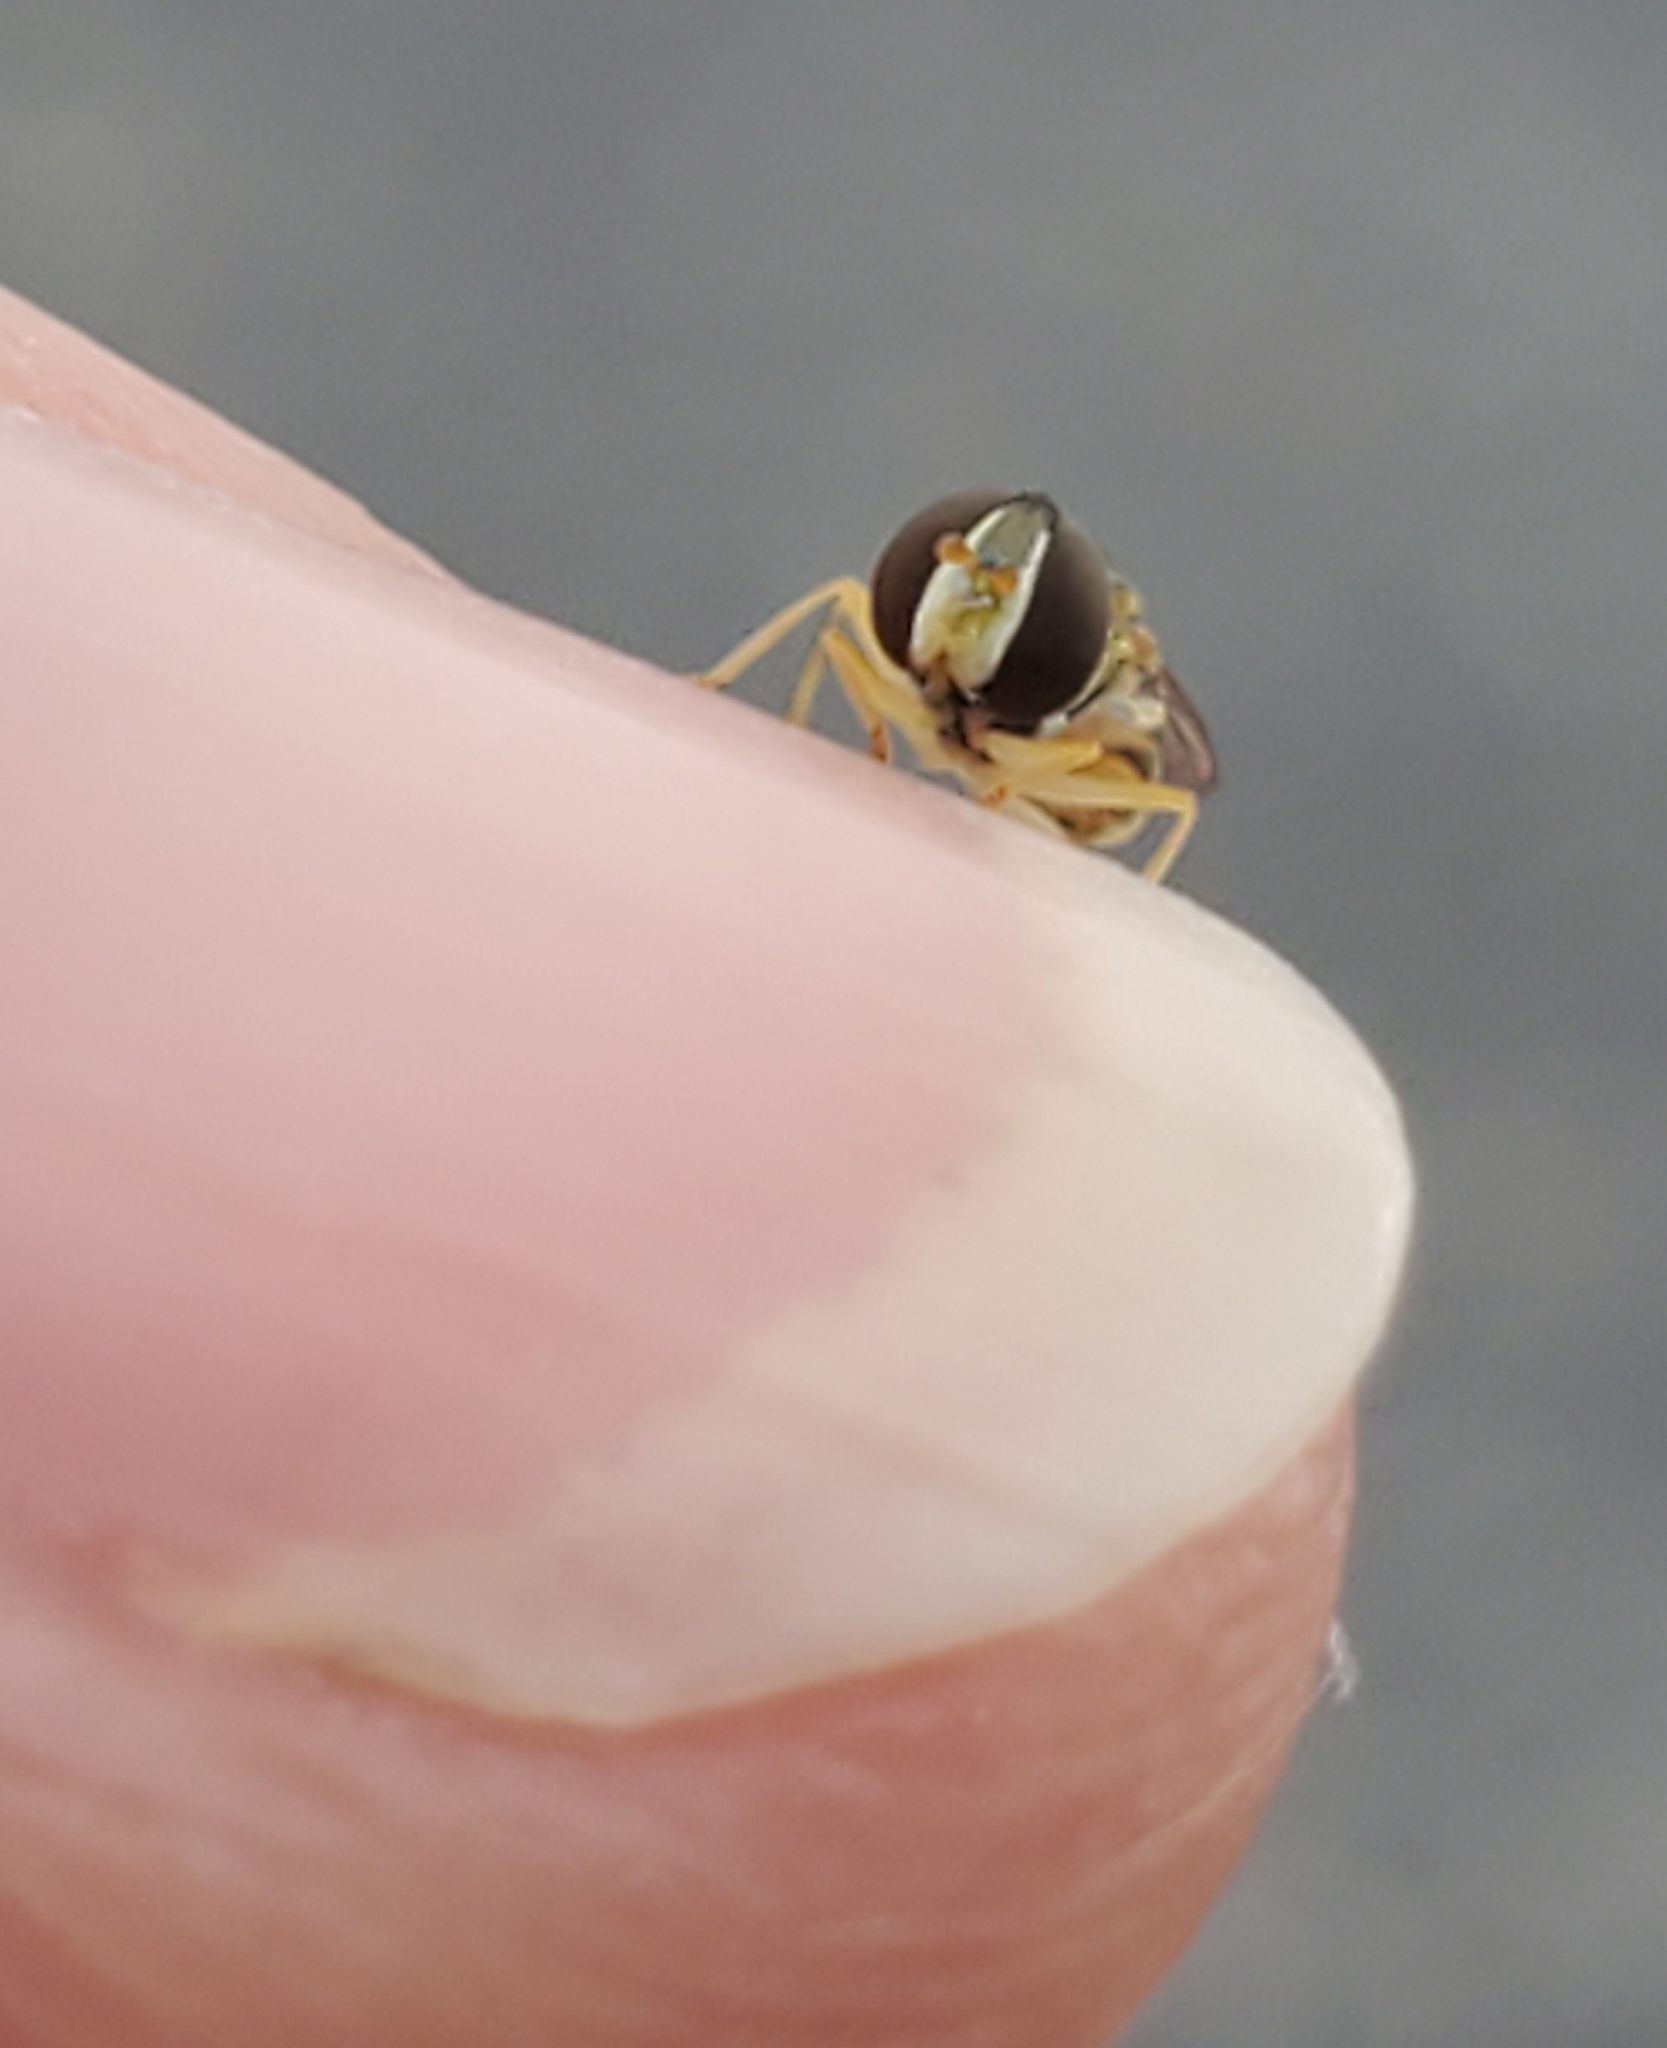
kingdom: Animalia
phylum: Arthropoda
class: Insecta
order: Diptera
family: Syrphidae
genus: Toxomerus
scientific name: Toxomerus marginatus
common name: Syrphid fly
